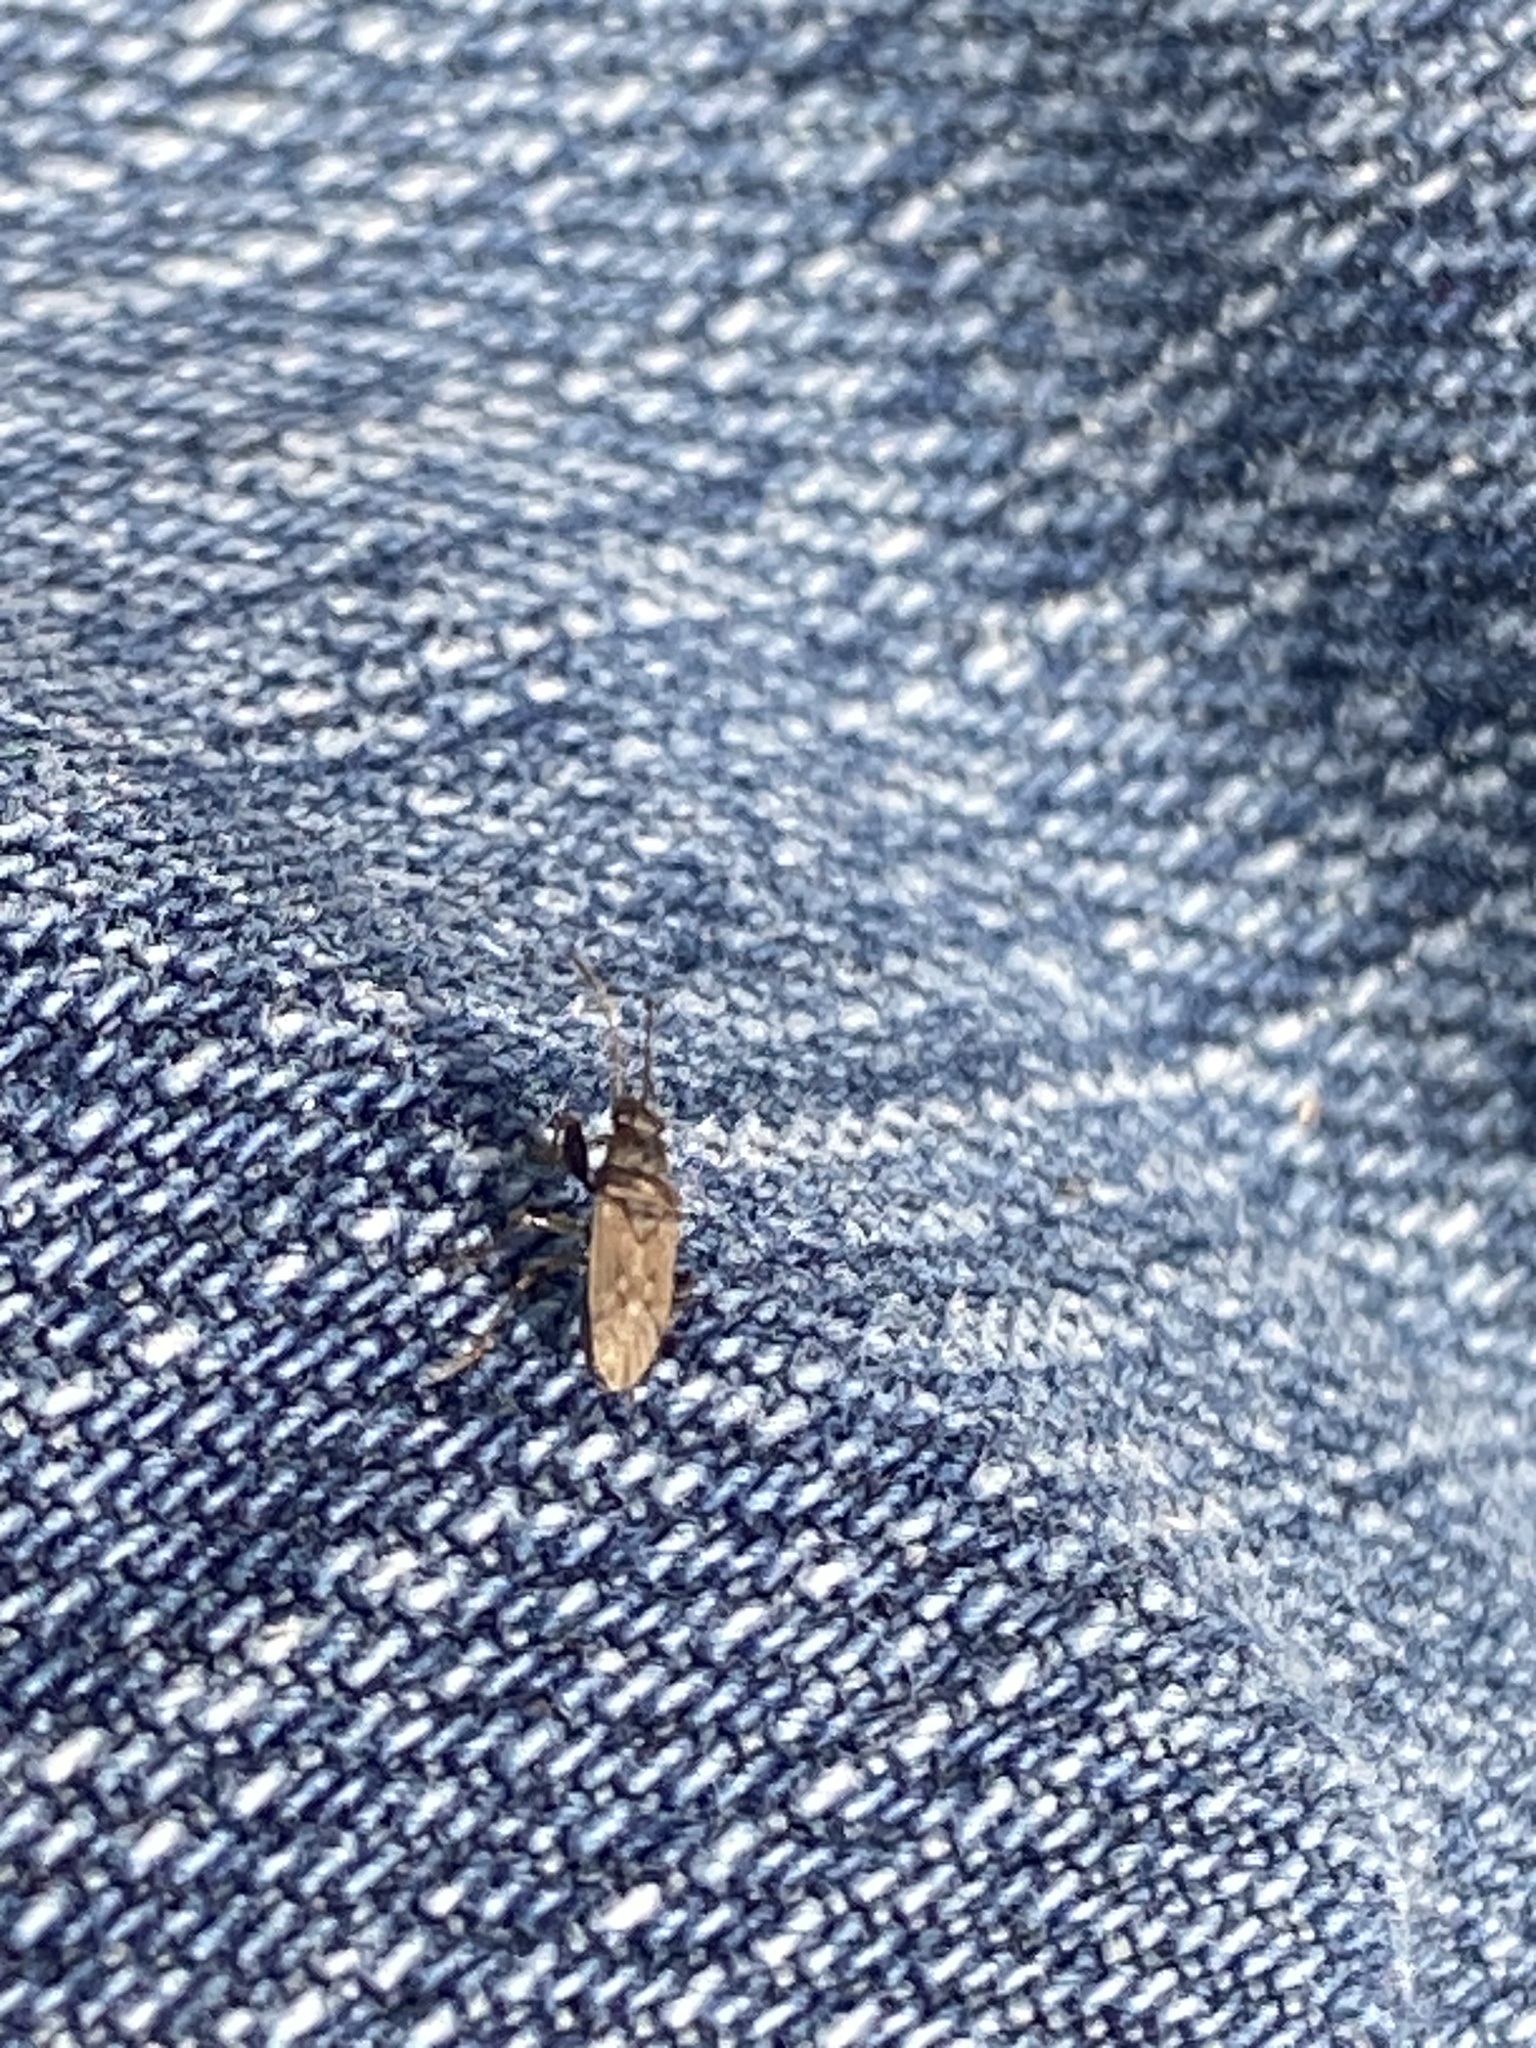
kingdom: Animalia
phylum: Arthropoda
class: Insecta
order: Hemiptera
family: Rhyparochromidae
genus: Pseudopachybrachius
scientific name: Pseudopachybrachius basalis
